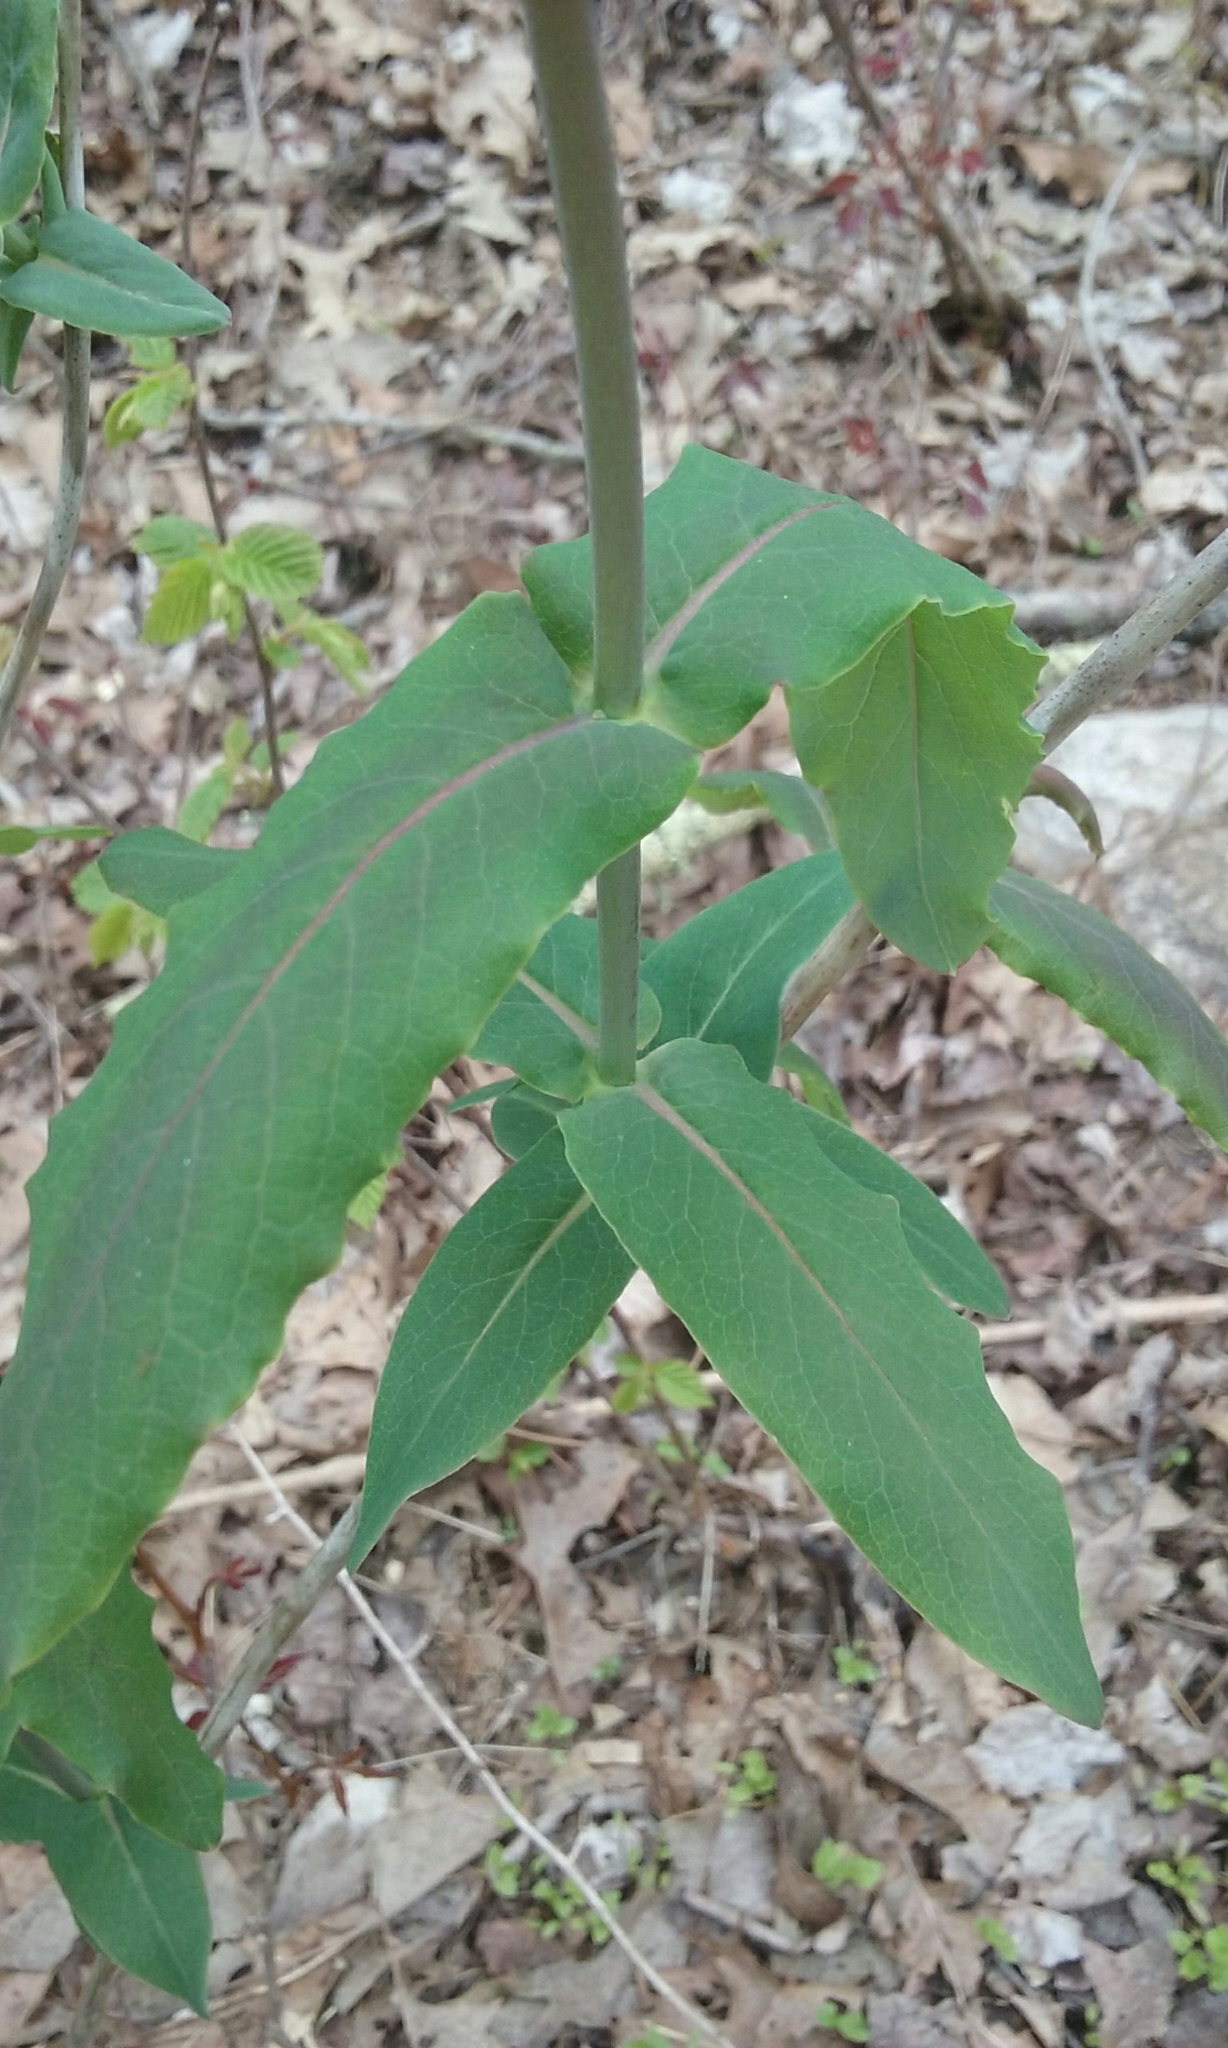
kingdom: Plantae
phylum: Tracheophyta
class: Magnoliopsida
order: Dipsacales
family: Caprifoliaceae
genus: Lonicera
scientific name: Lonicera dioica
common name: Limber honeysuckle
